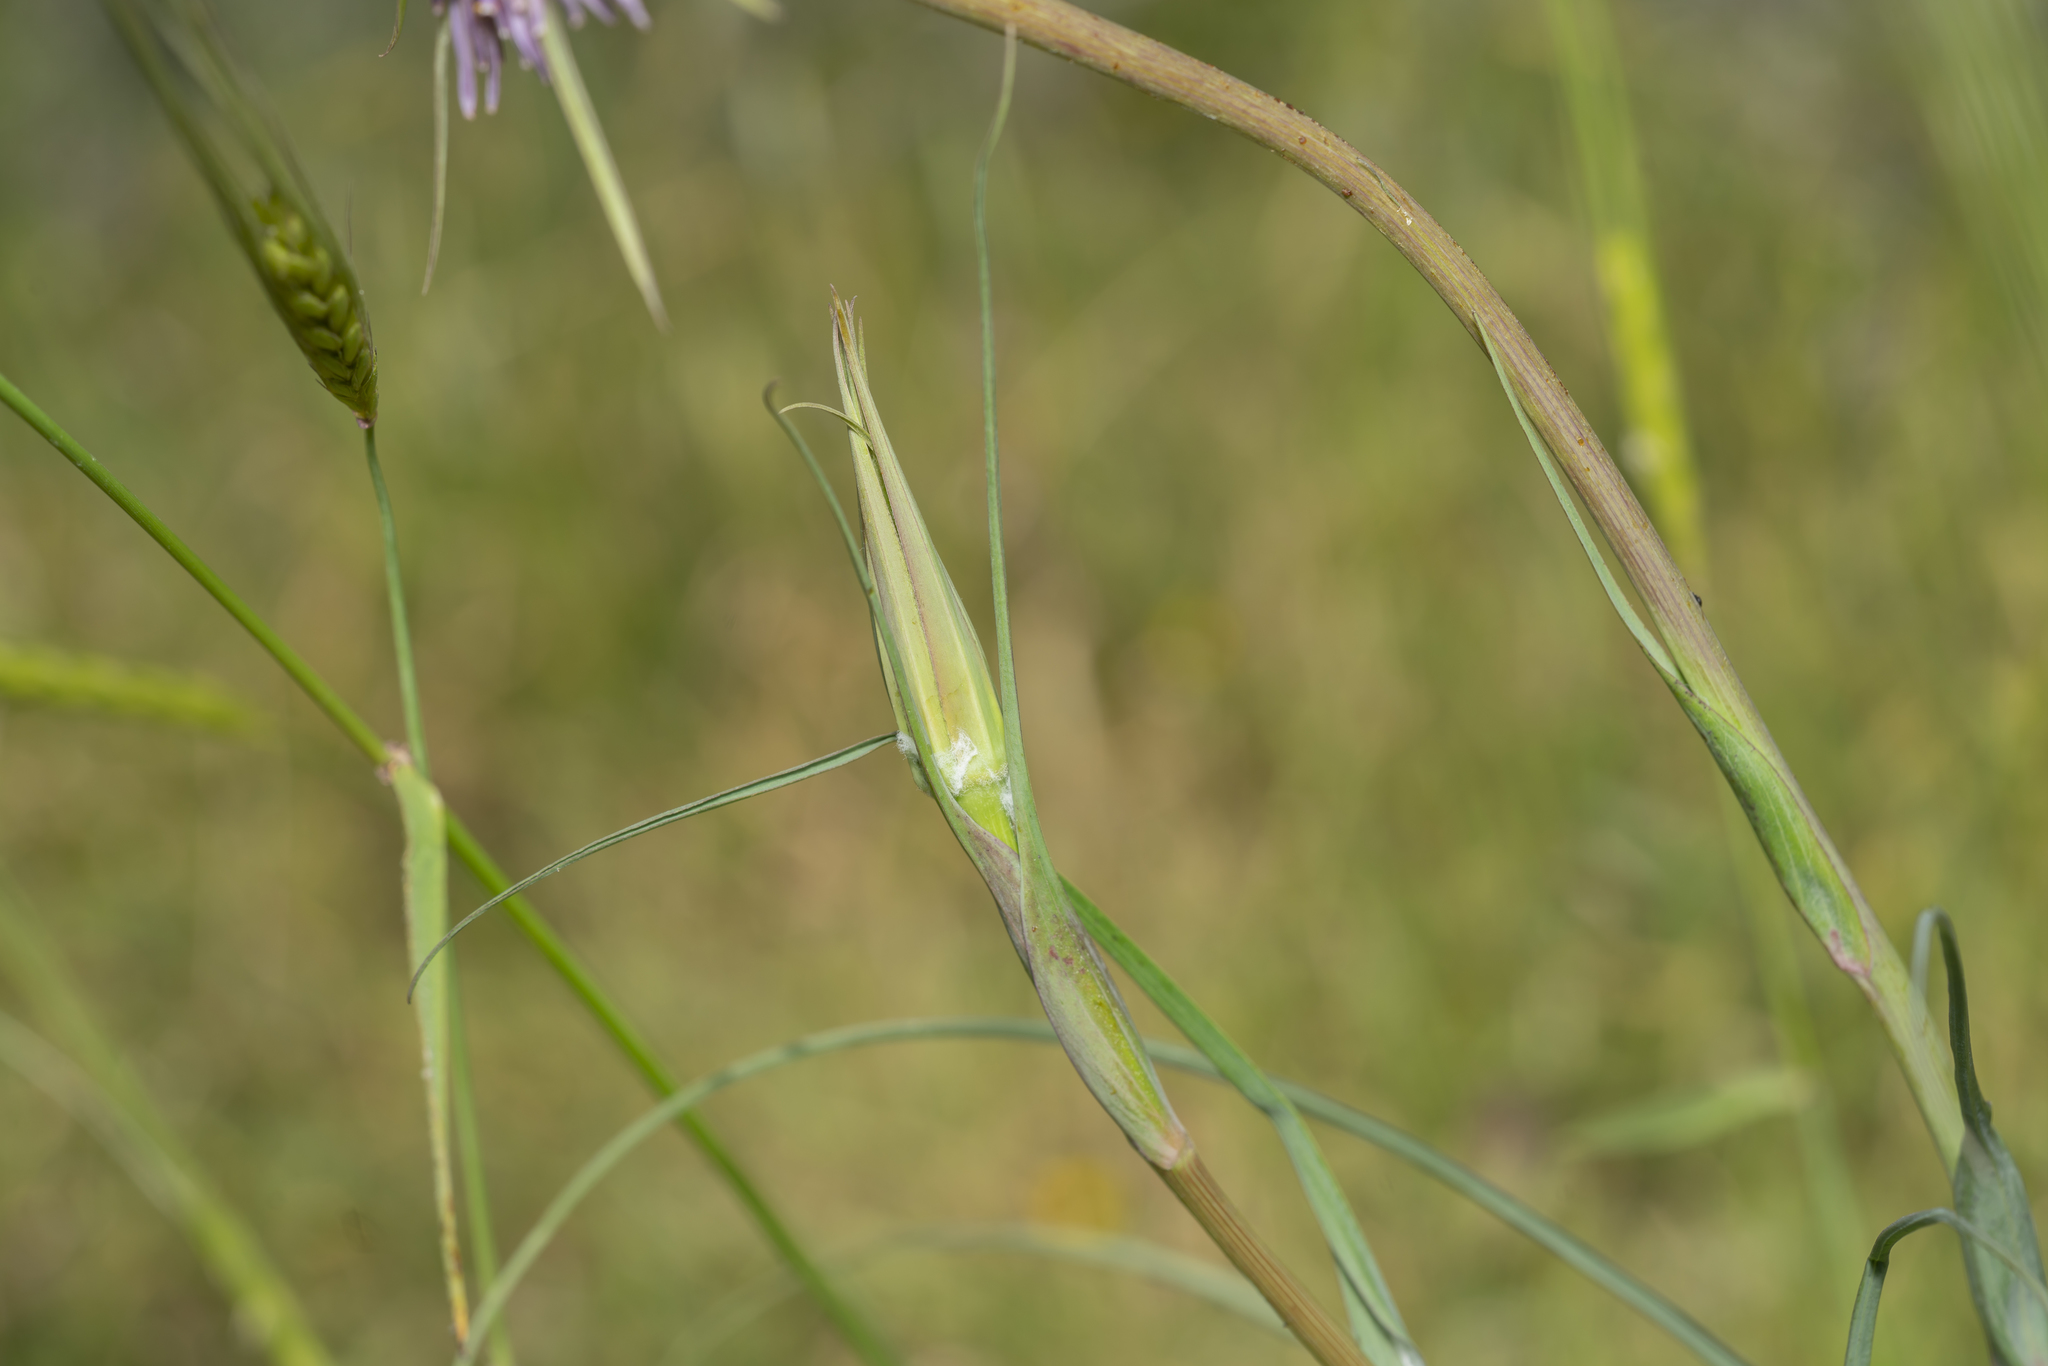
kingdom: Plantae
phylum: Tracheophyta
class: Magnoliopsida
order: Asterales
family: Asteraceae
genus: Tragopogon
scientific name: Tragopogon coelesyriacus
